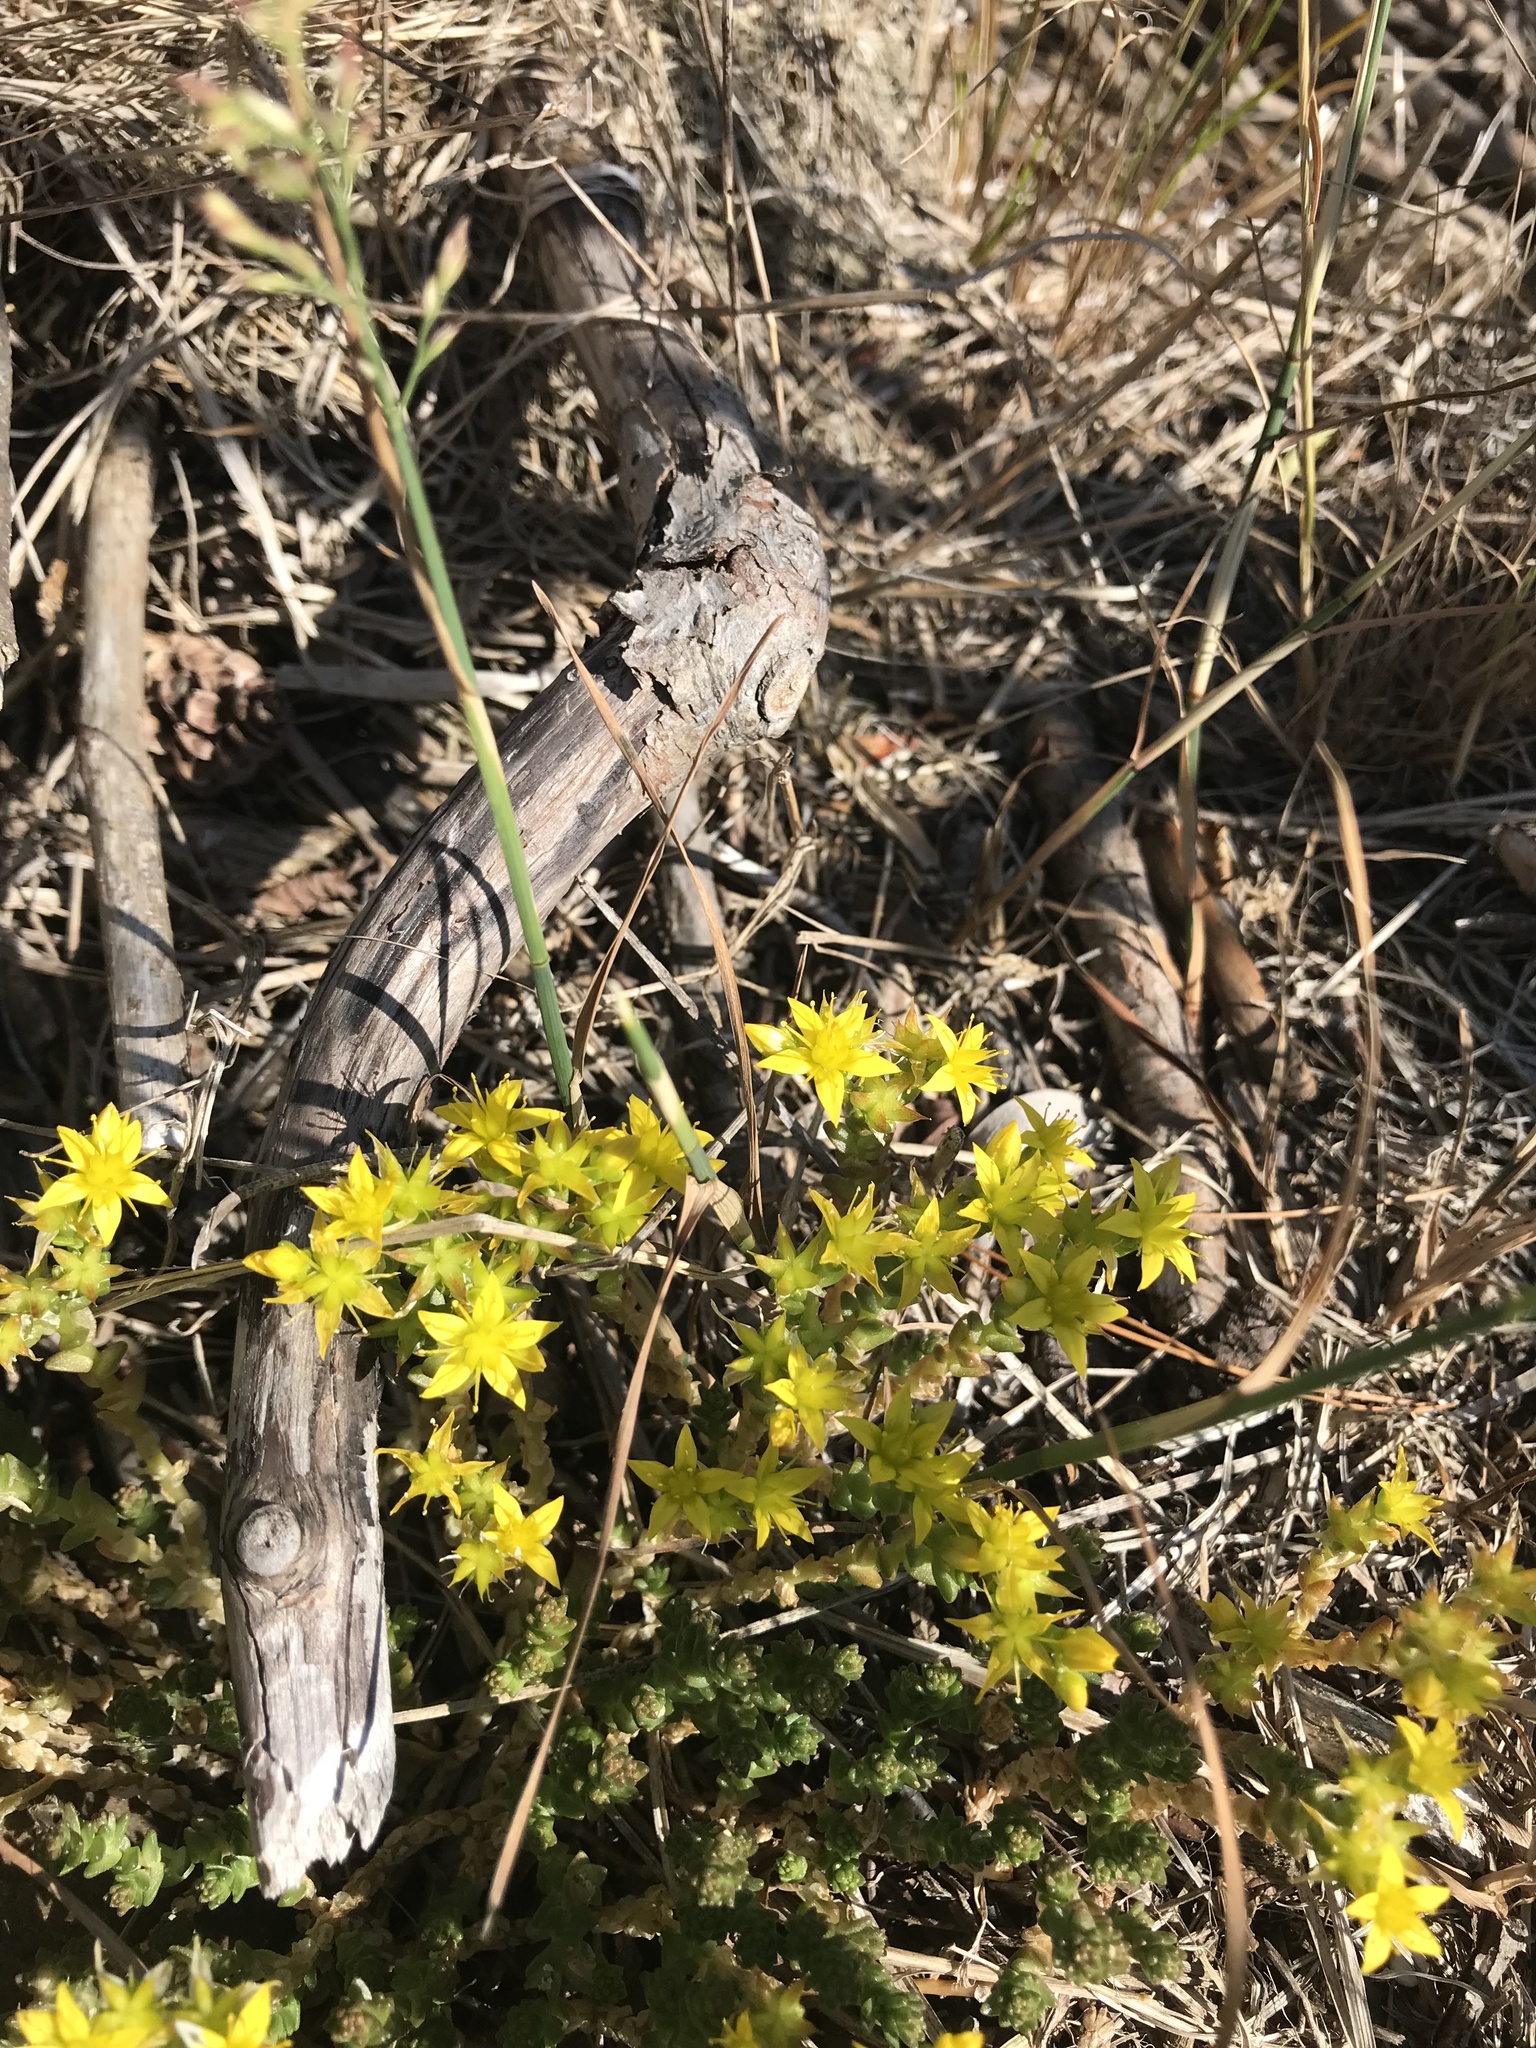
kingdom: Plantae
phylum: Tracheophyta
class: Magnoliopsida
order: Saxifragales
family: Crassulaceae
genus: Sedum
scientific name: Sedum acre
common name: Biting stonecrop
